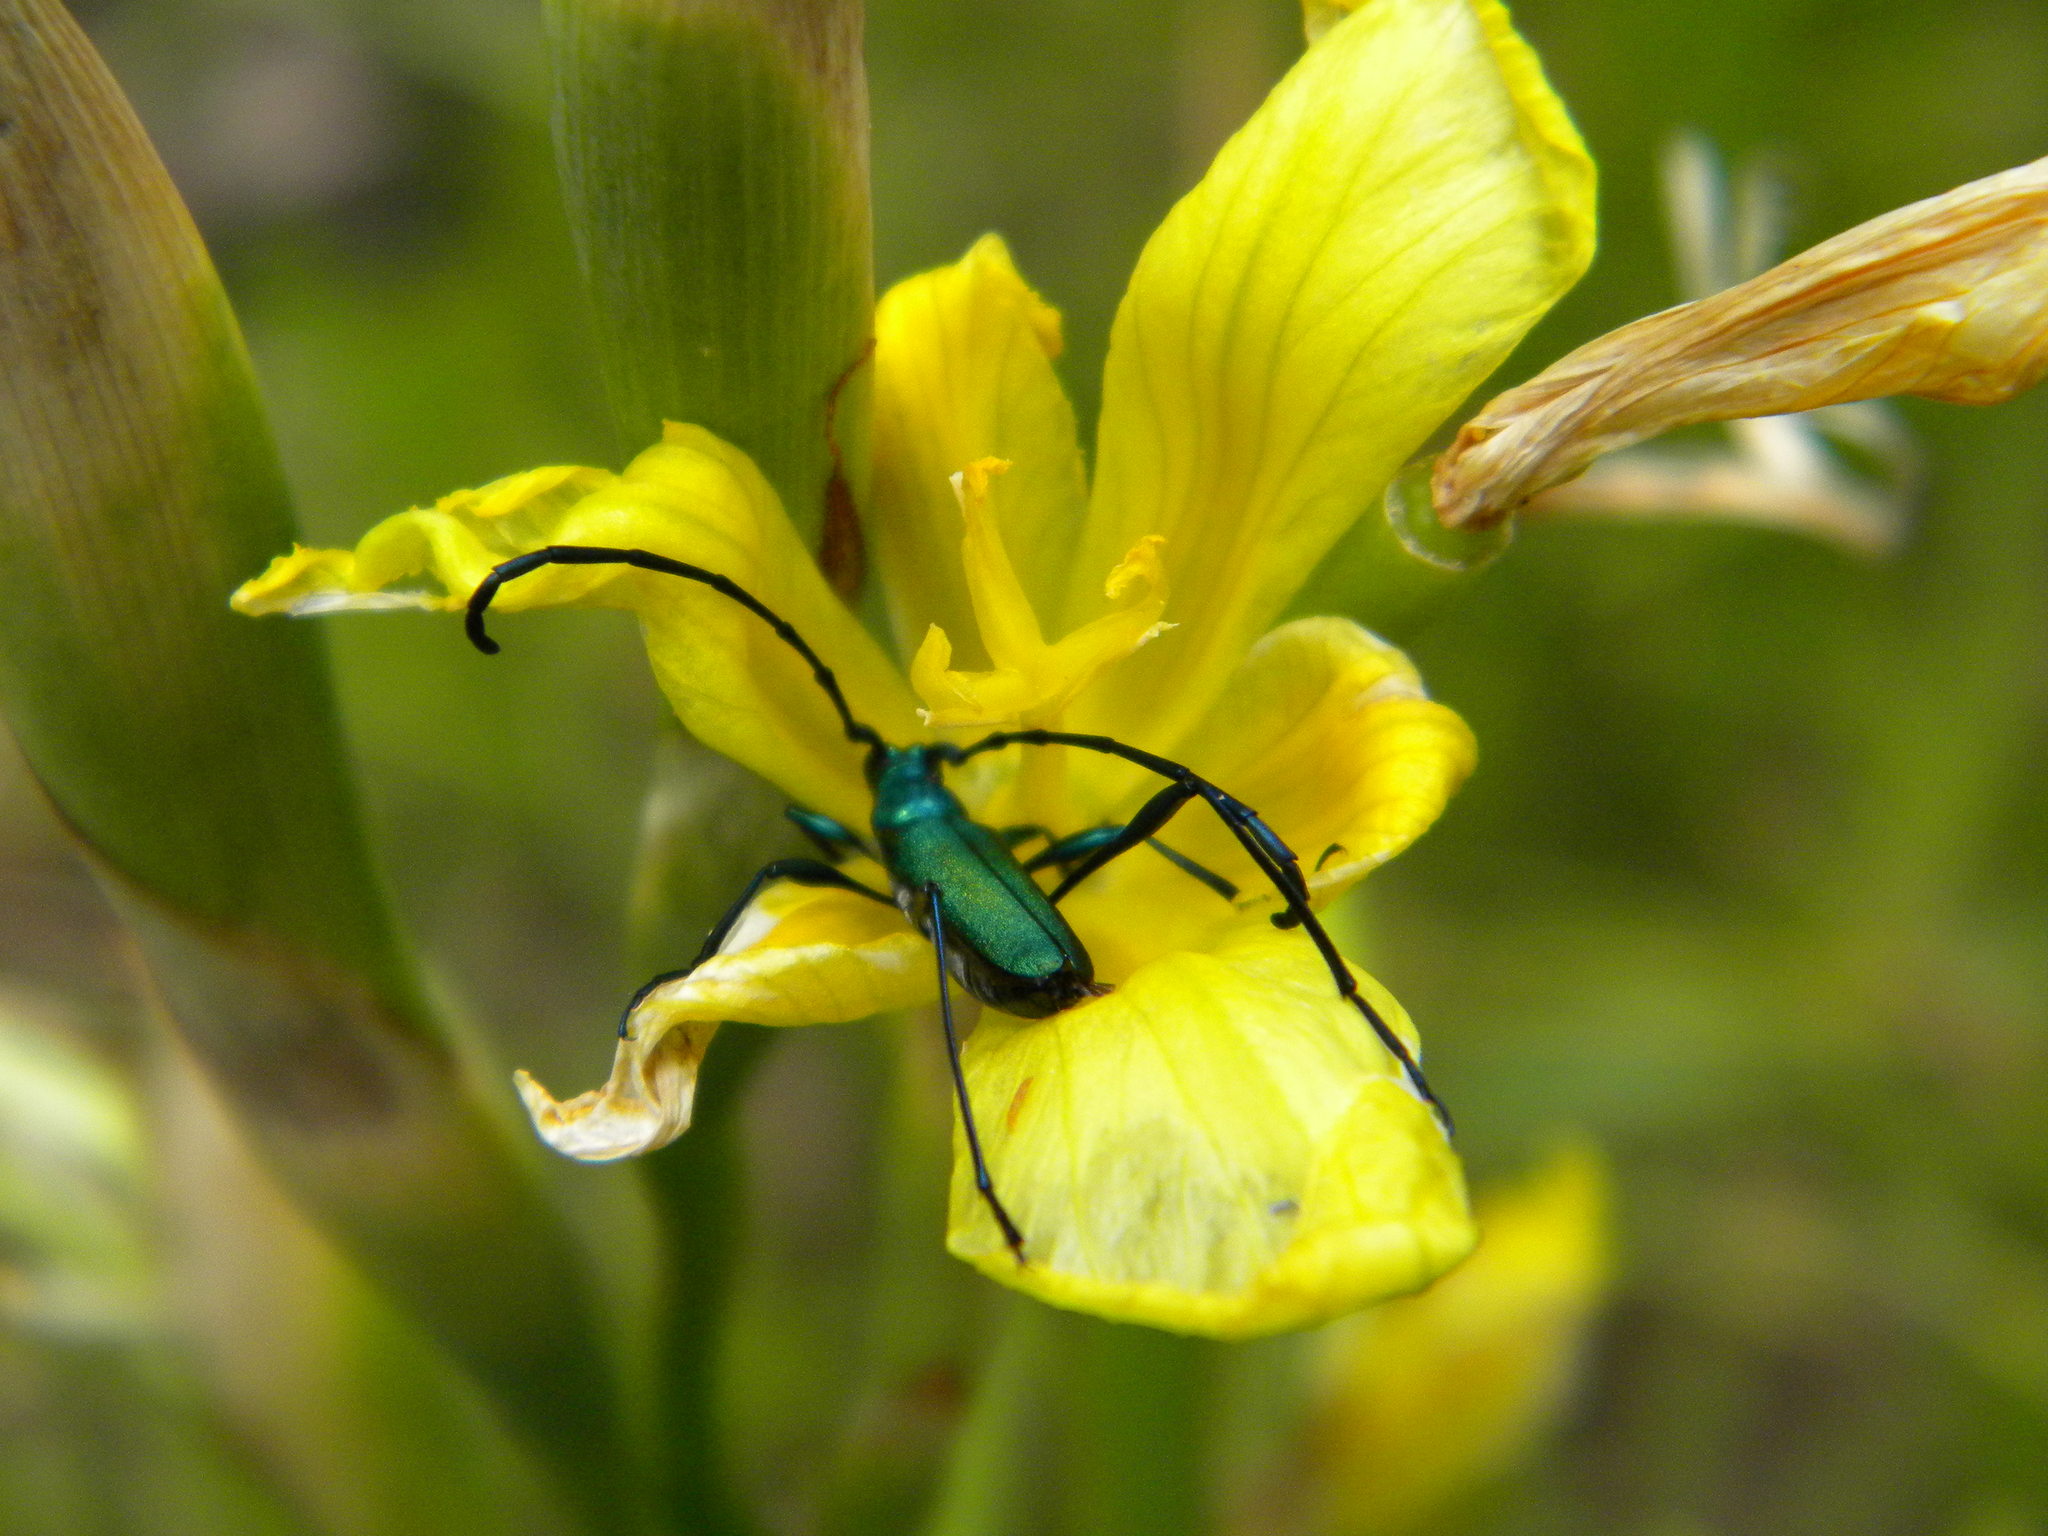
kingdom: Animalia
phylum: Arthropoda
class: Insecta
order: Coleoptera
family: Cerambycidae
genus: Promeces
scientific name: Promeces longipes
